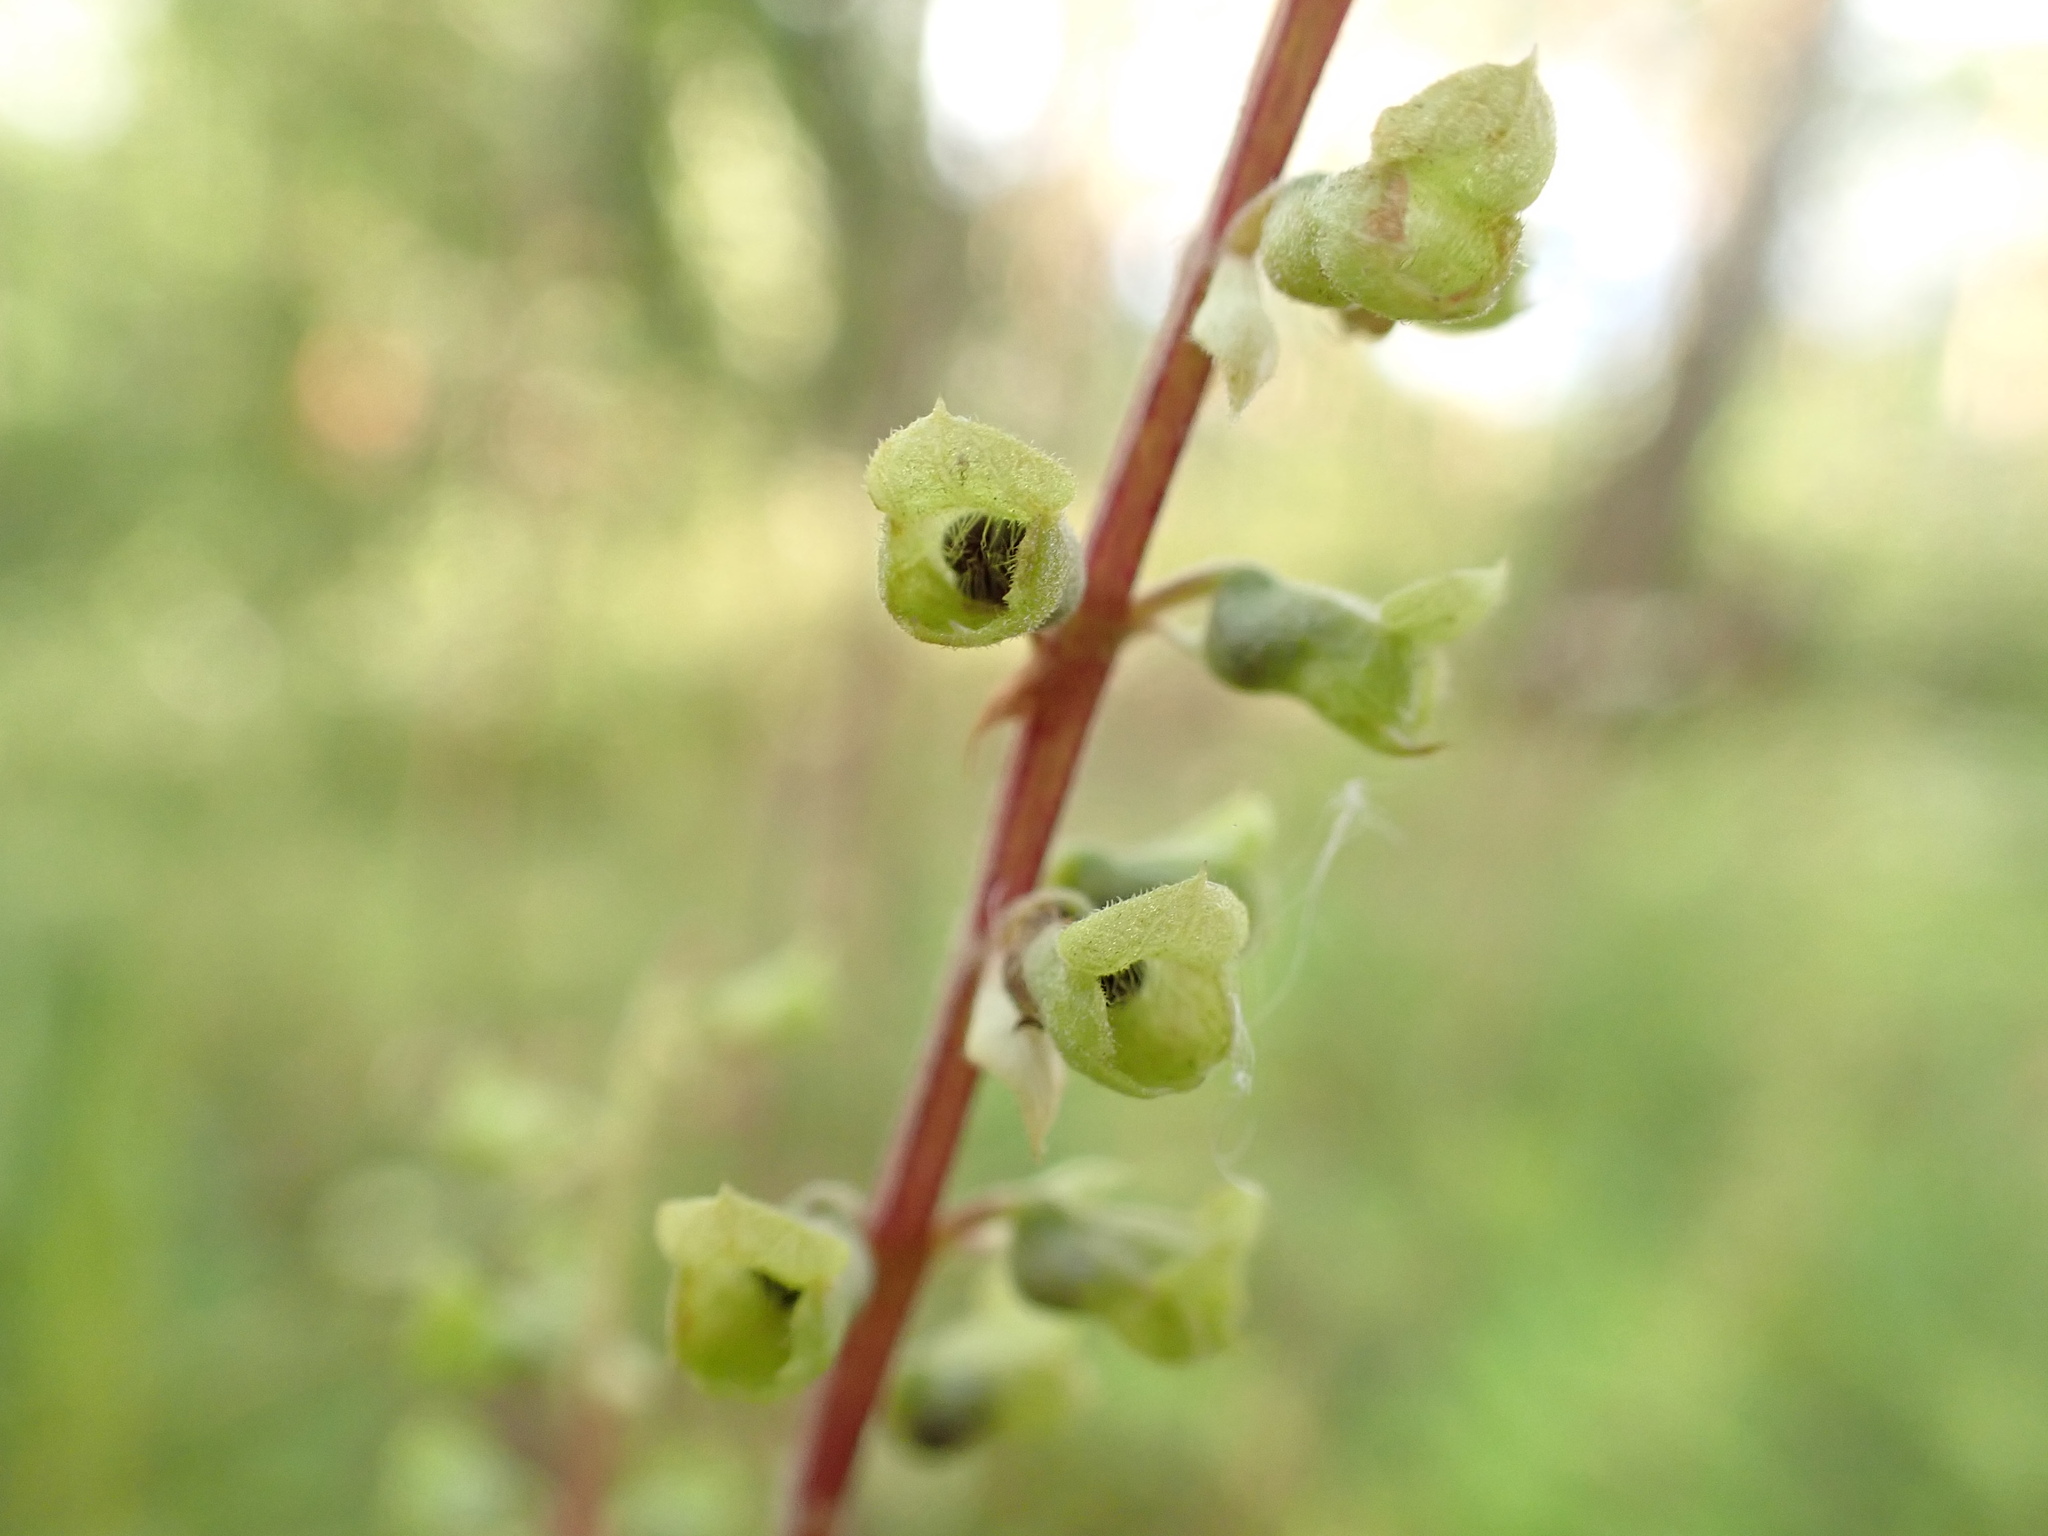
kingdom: Plantae
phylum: Tracheophyta
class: Magnoliopsida
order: Lamiales
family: Lamiaceae
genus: Teucrium
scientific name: Teucrium scorodonia
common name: Woodland germander
